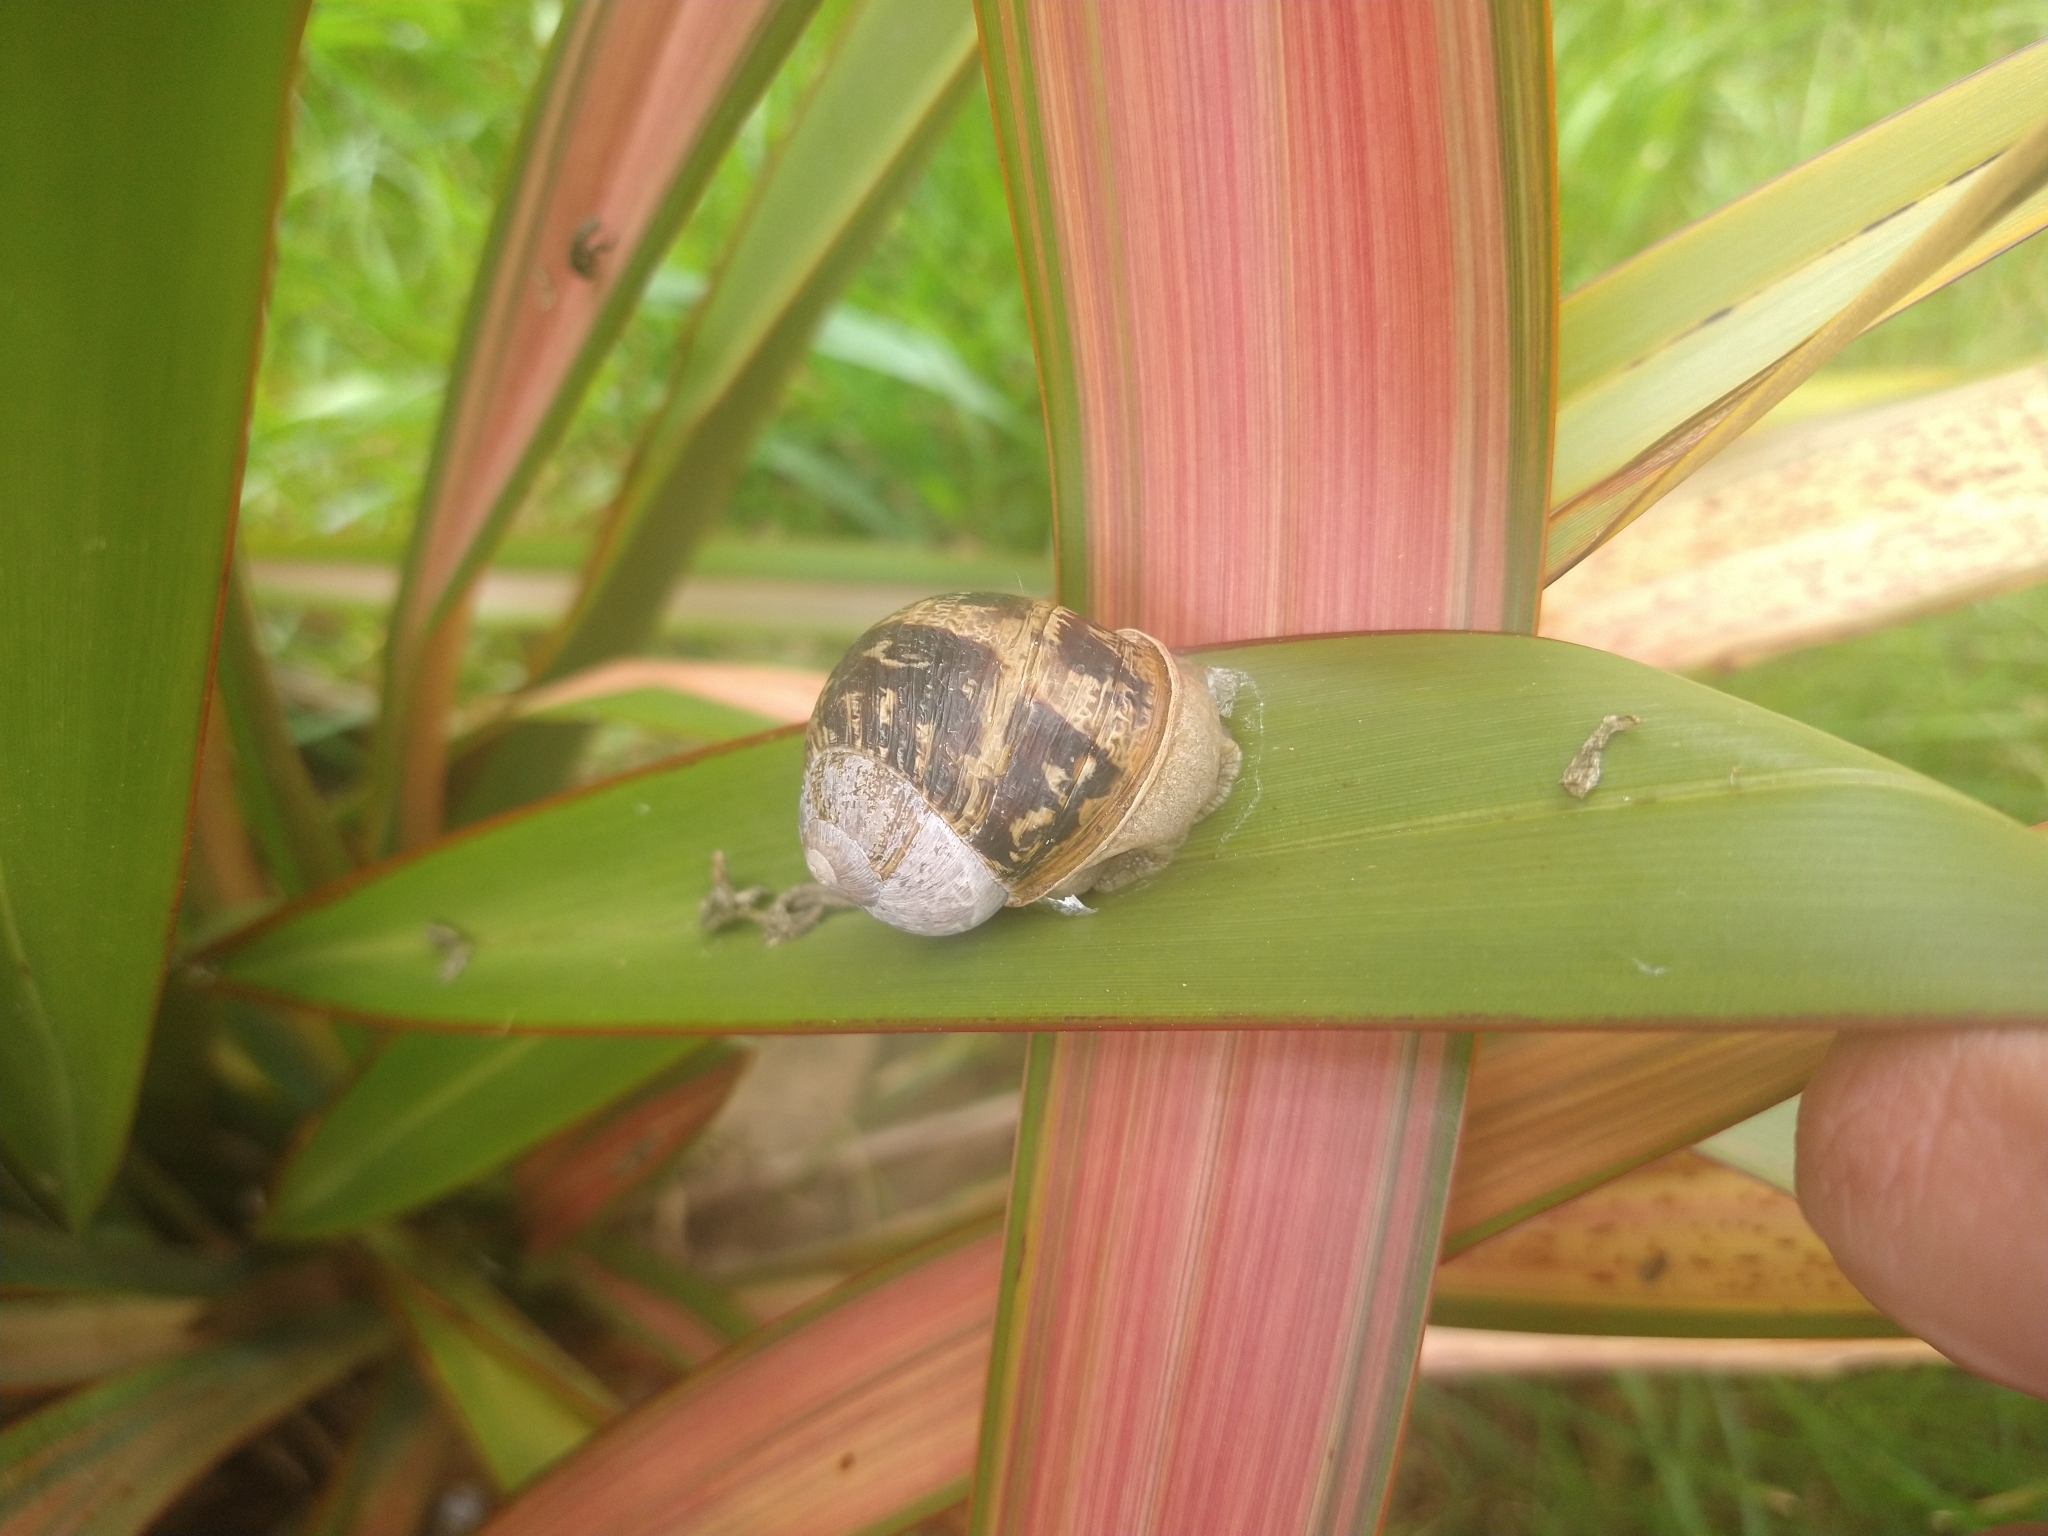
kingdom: Animalia
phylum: Mollusca
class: Gastropoda
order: Stylommatophora
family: Helicidae
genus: Cornu
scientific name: Cornu aspersum
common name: Brown garden snail
